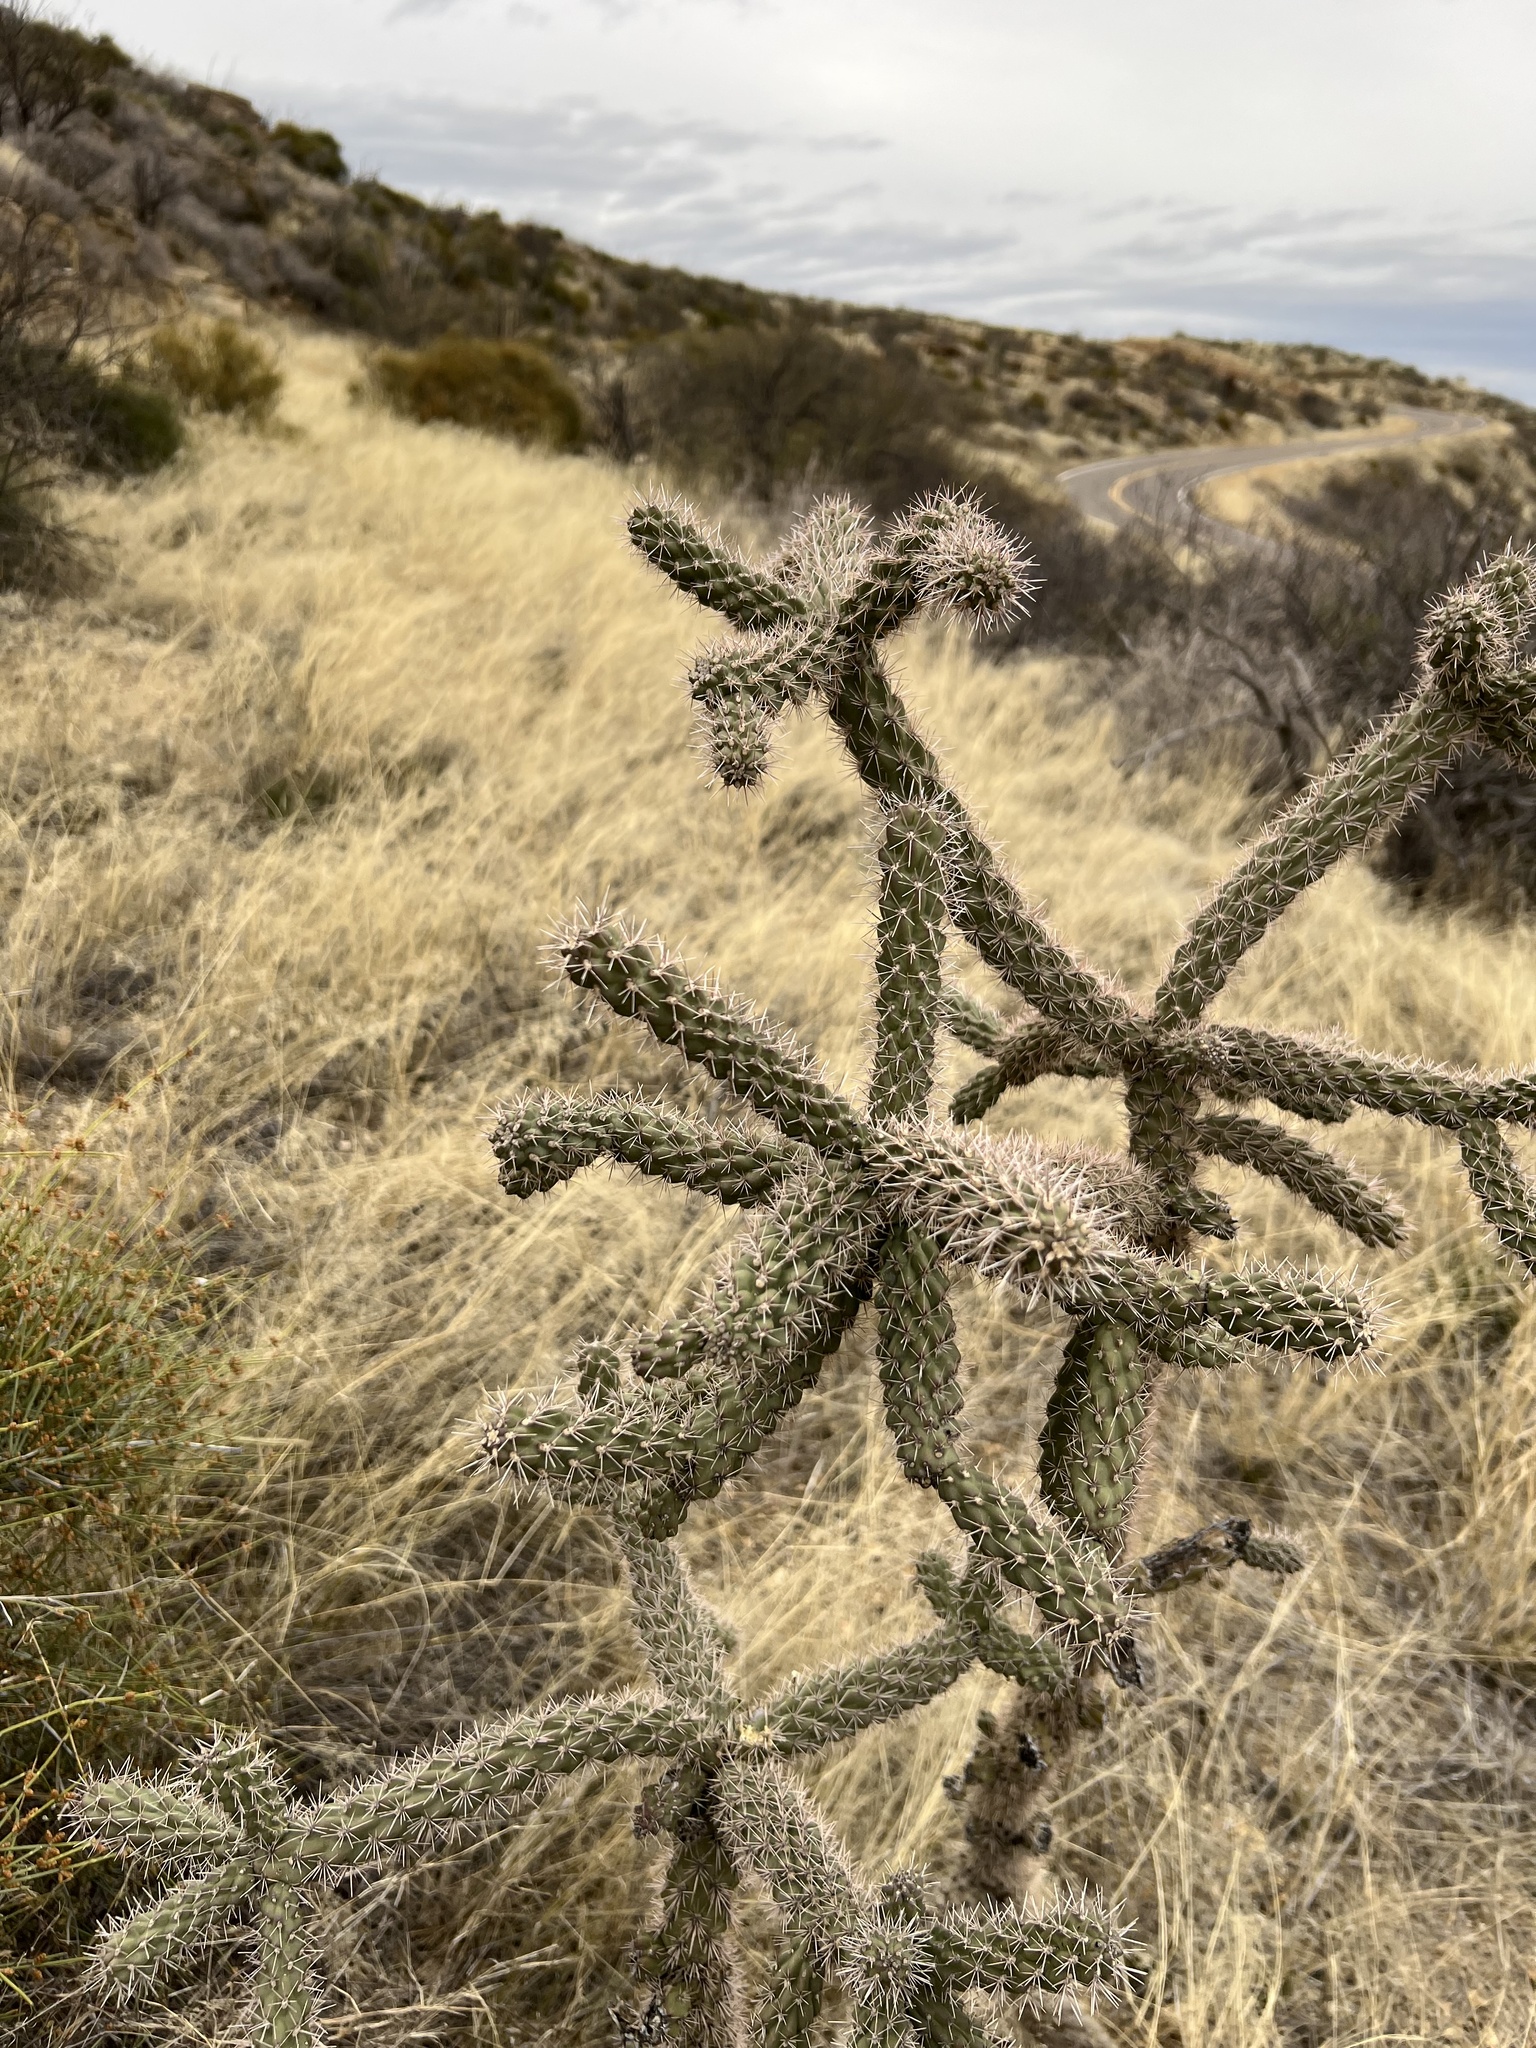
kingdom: Plantae
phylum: Tracheophyta
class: Magnoliopsida
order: Caryophyllales
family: Cactaceae
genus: Cylindropuntia
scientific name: Cylindropuntia imbricata
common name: Candelabrum cactus
